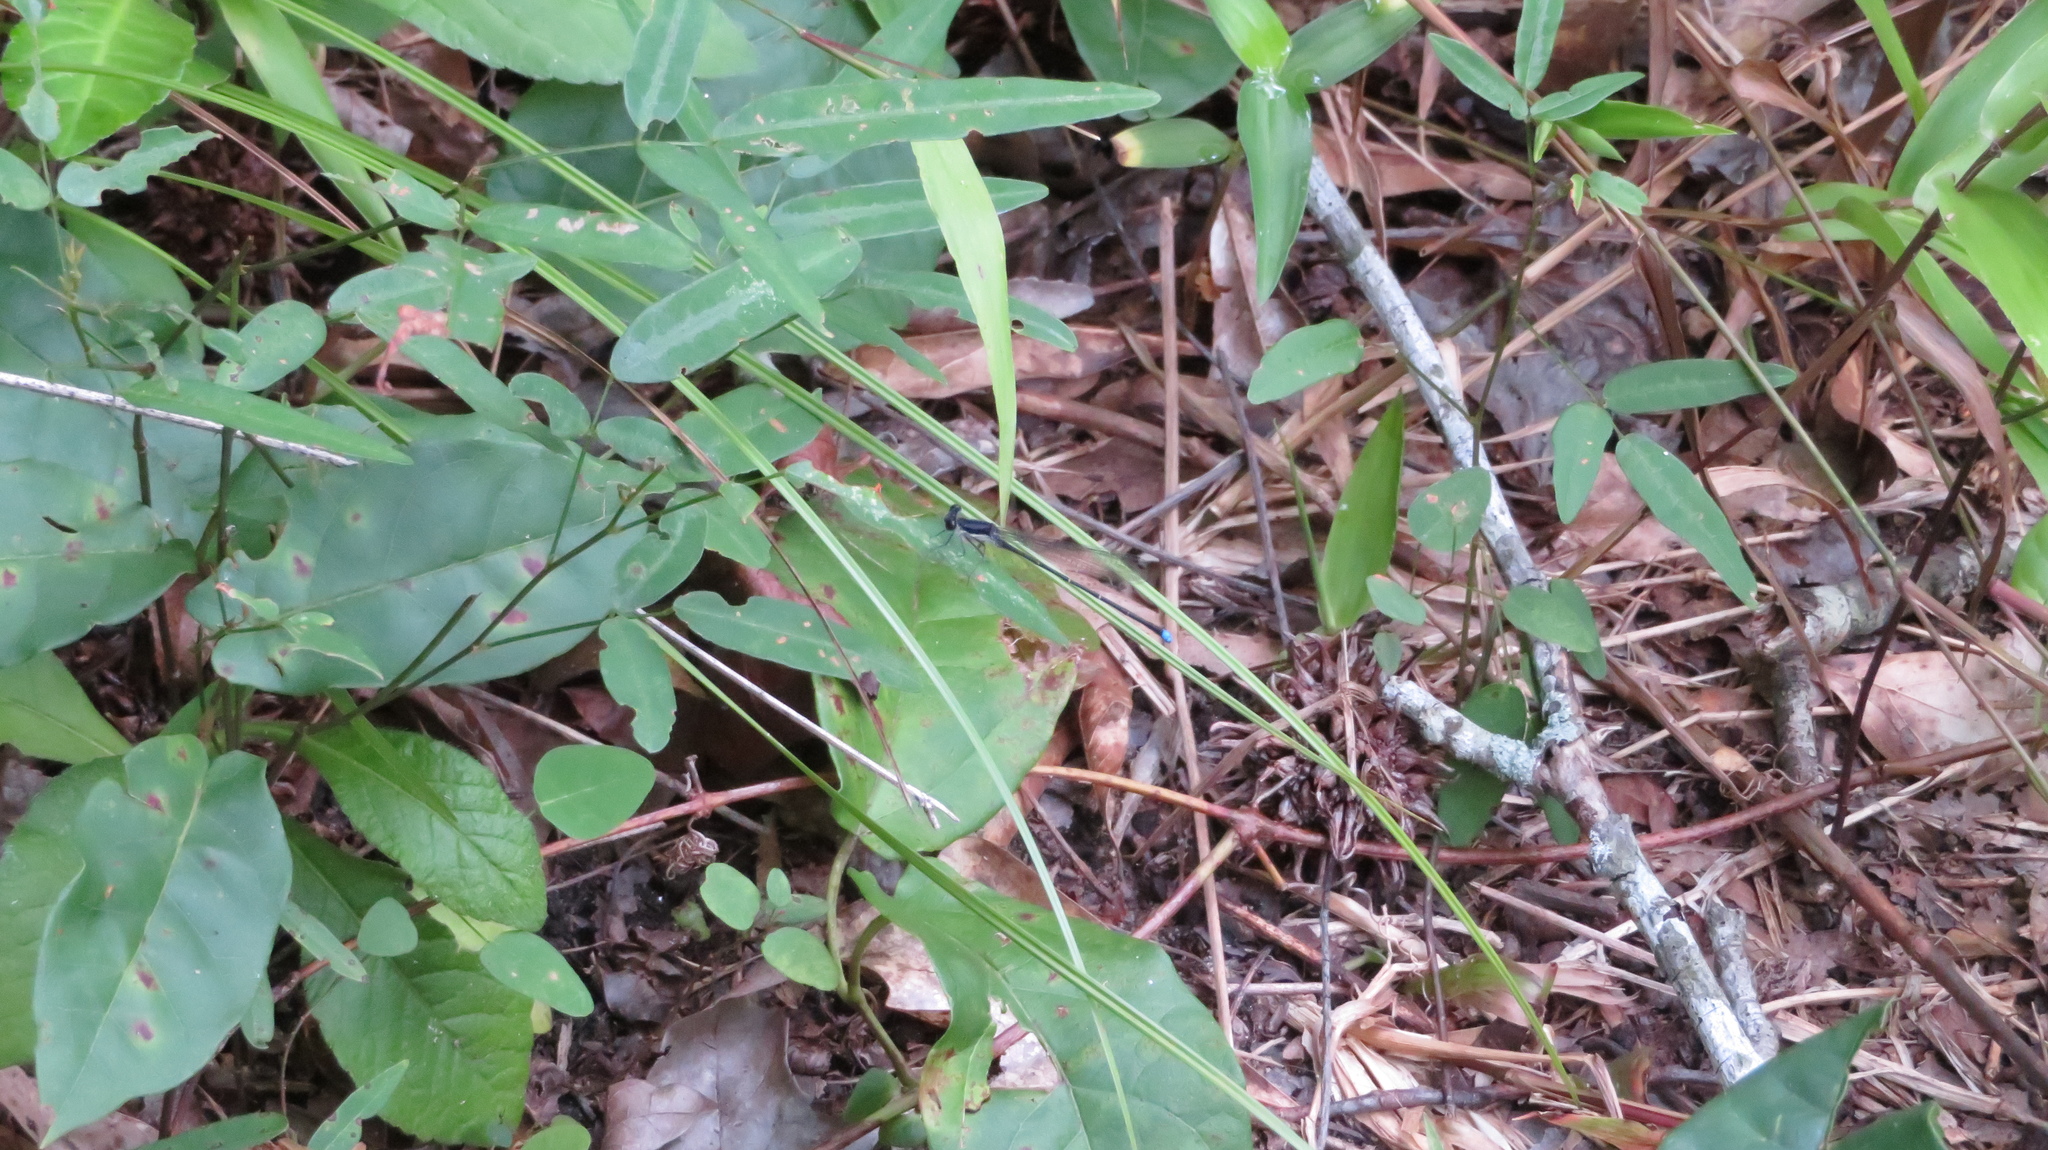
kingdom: Animalia
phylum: Arthropoda
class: Insecta
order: Odonata
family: Coenagrionidae
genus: Argia
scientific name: Argia tibialis
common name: Blue-tipped dancer
